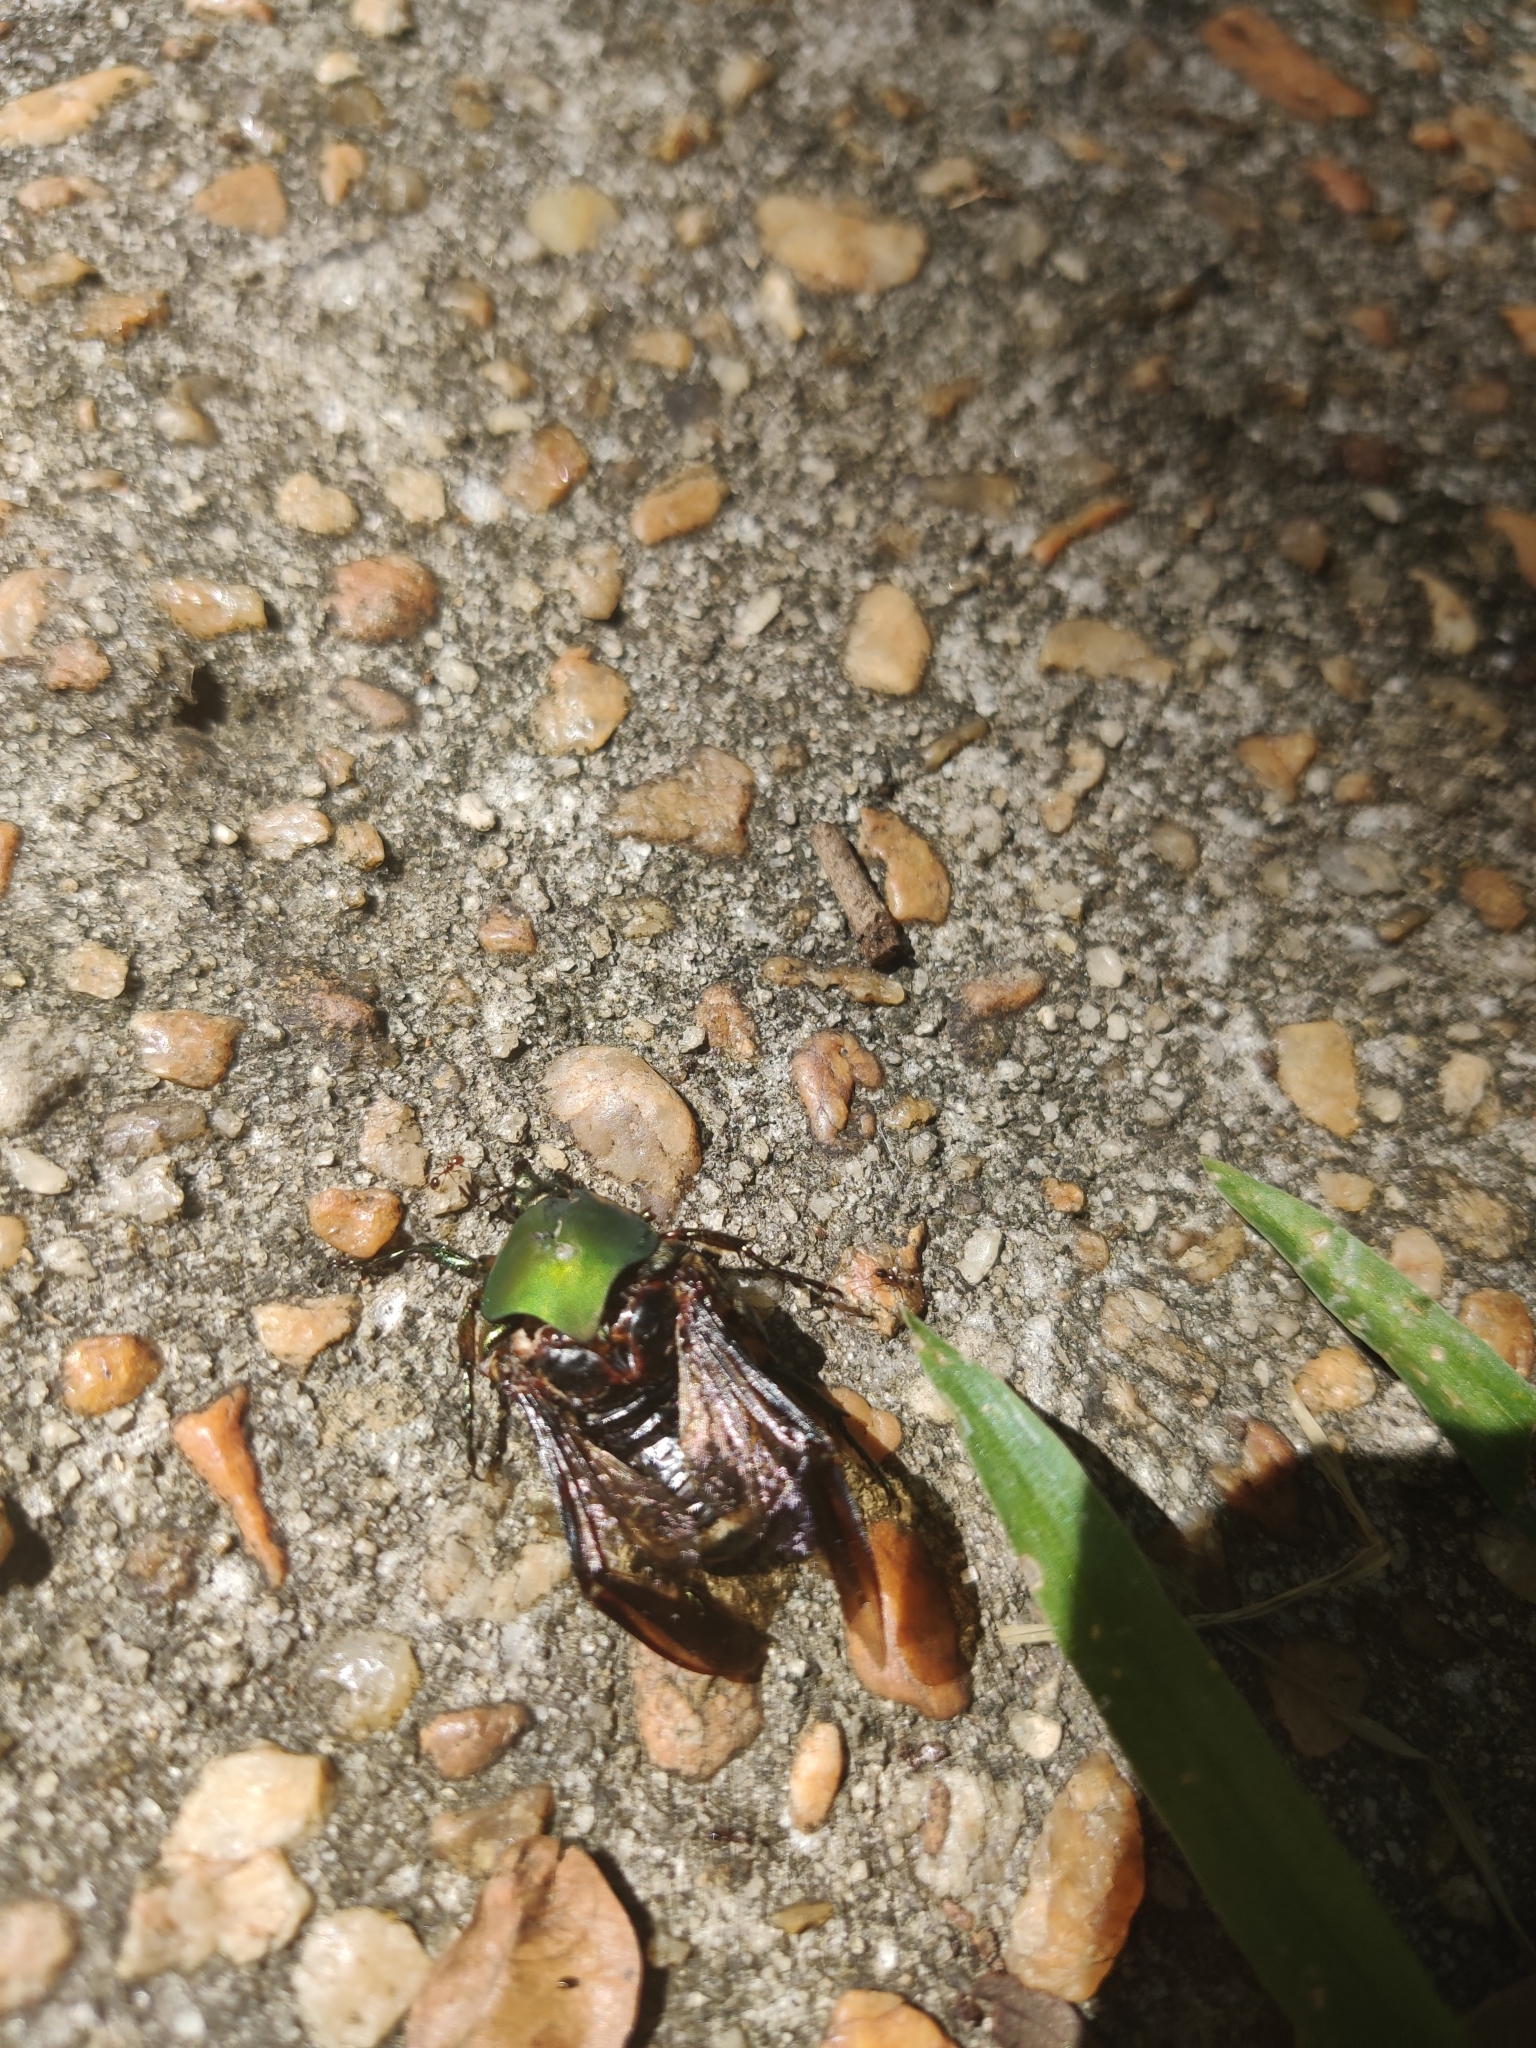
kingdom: Animalia
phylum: Arthropoda
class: Insecta
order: Coleoptera
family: Scarabaeidae
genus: Cotinis
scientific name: Cotinis nitida
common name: Common green june beetle
